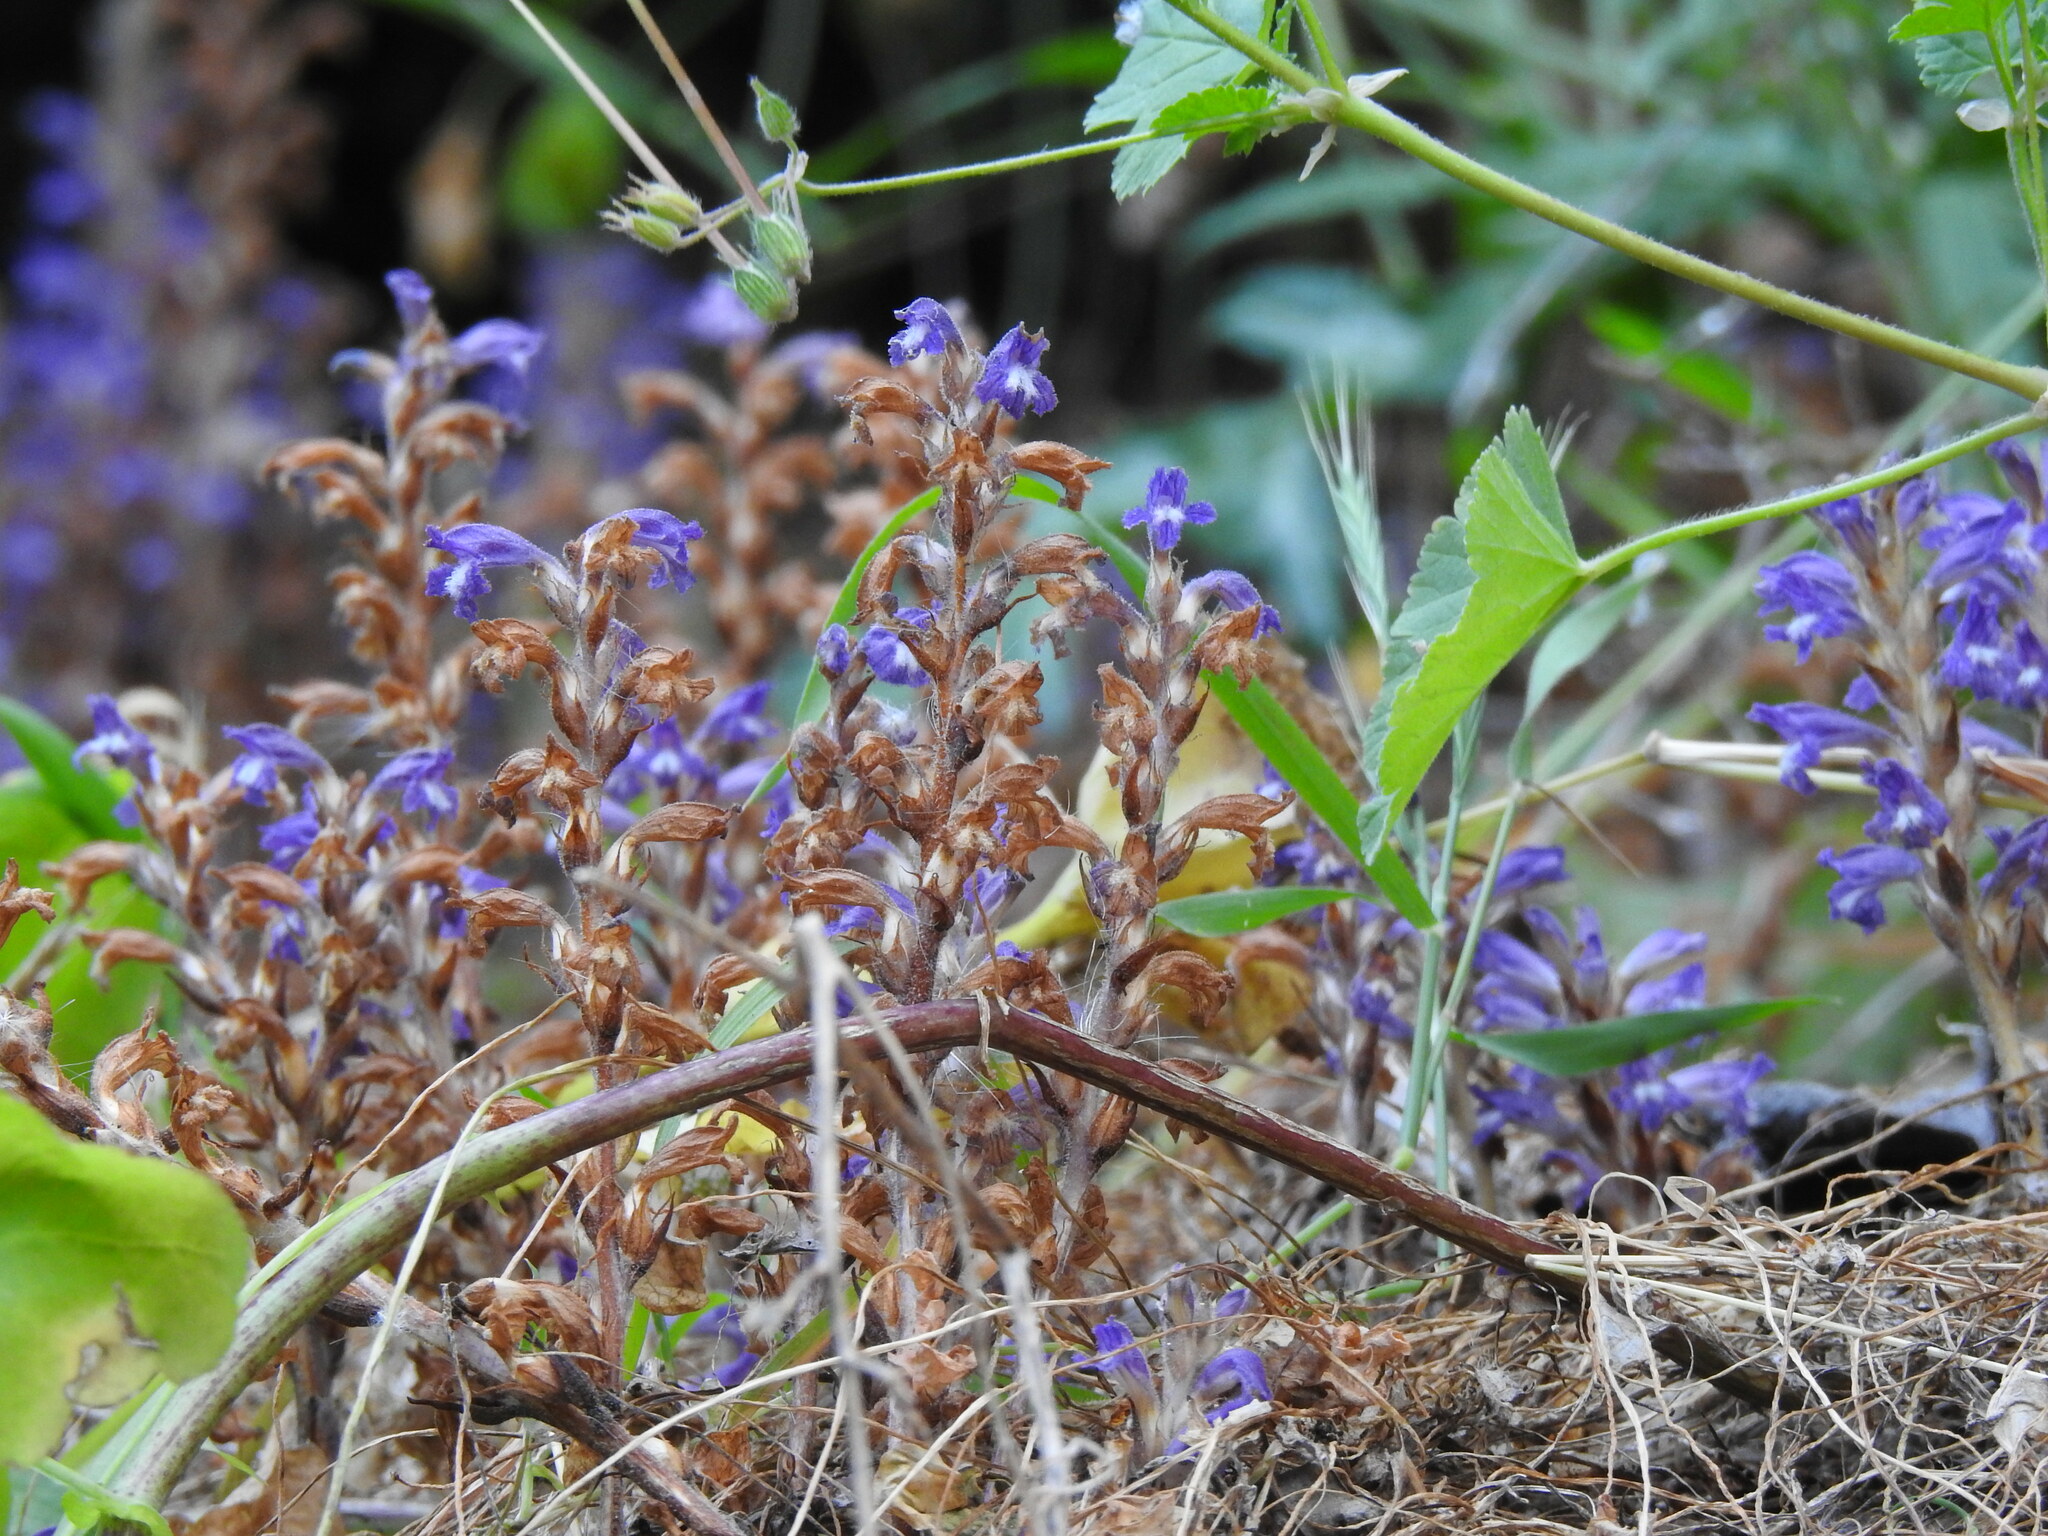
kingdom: Plantae
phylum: Tracheophyta
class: Magnoliopsida
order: Lamiales
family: Orobanchaceae
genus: Phelipanche
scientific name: Phelipanche mutelii
